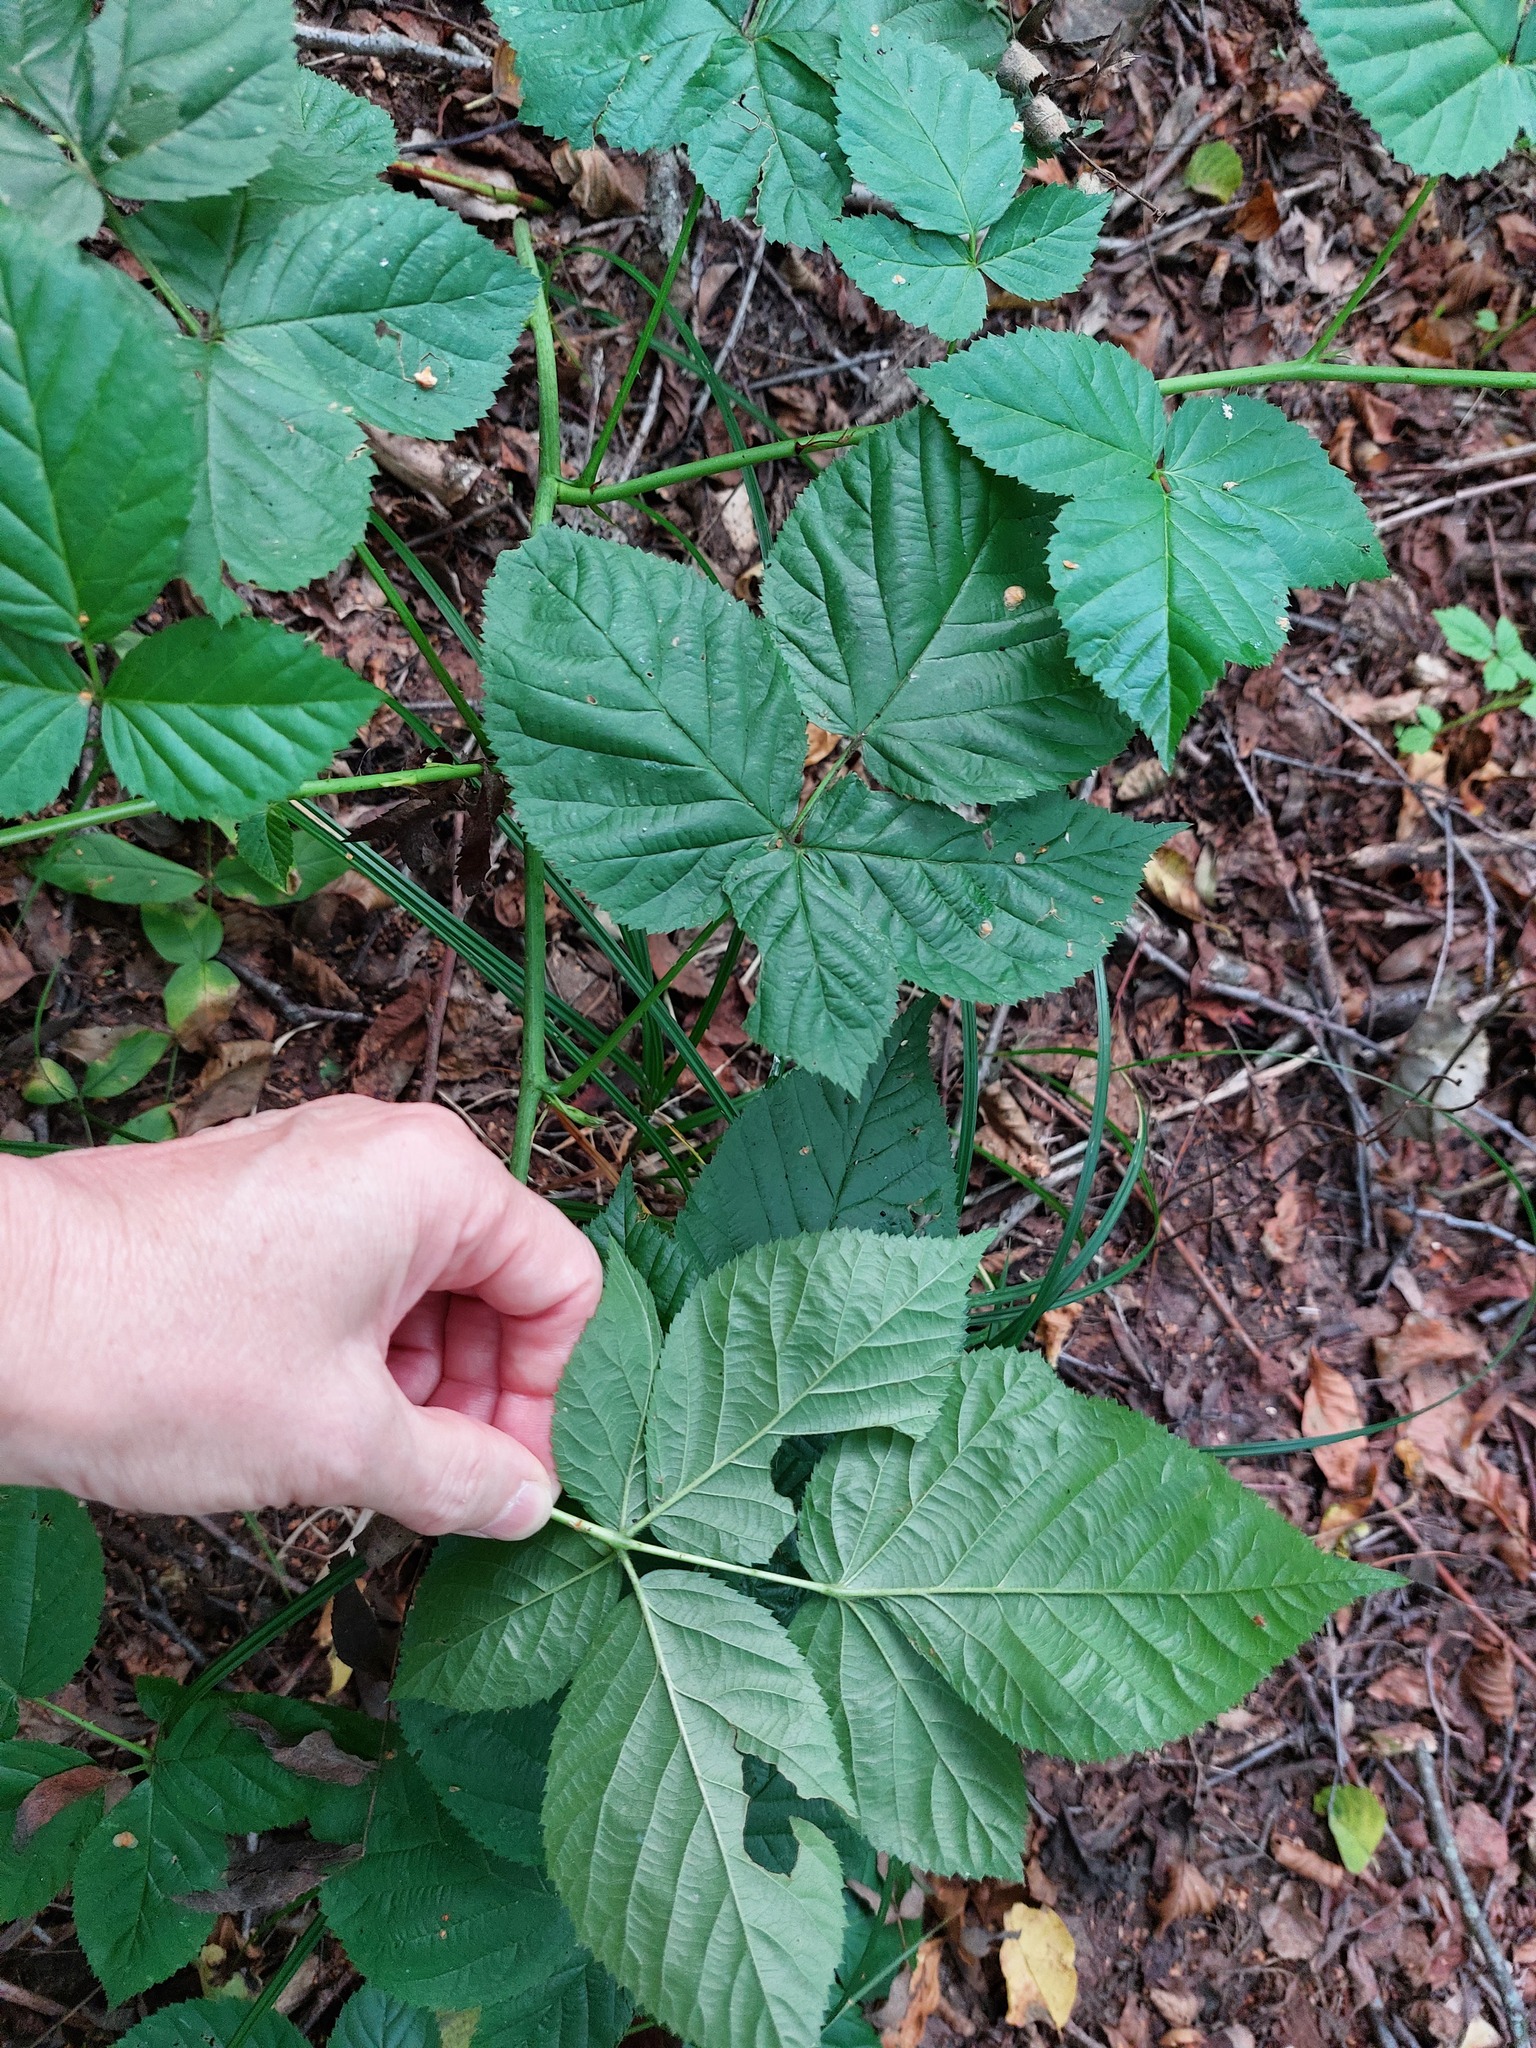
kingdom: Plantae
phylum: Tracheophyta
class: Magnoliopsida
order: Rosales
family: Rosaceae
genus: Rubus
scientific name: Rubus polonicus
